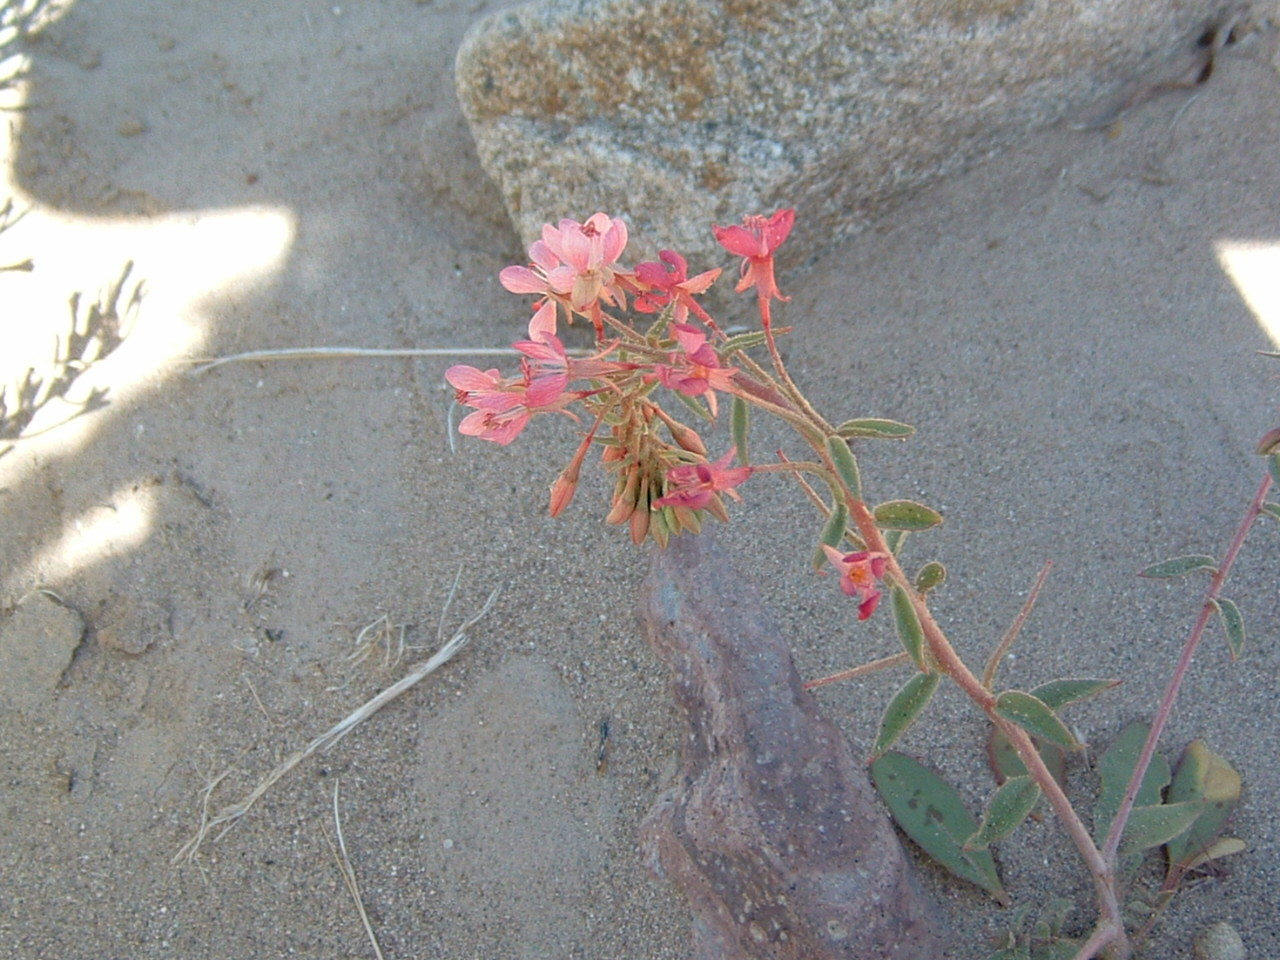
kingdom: Plantae
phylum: Tracheophyta
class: Magnoliopsida
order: Myrtales
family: Onagraceae
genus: Eremothera
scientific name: Eremothera boothii
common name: Booth's evening primrose
